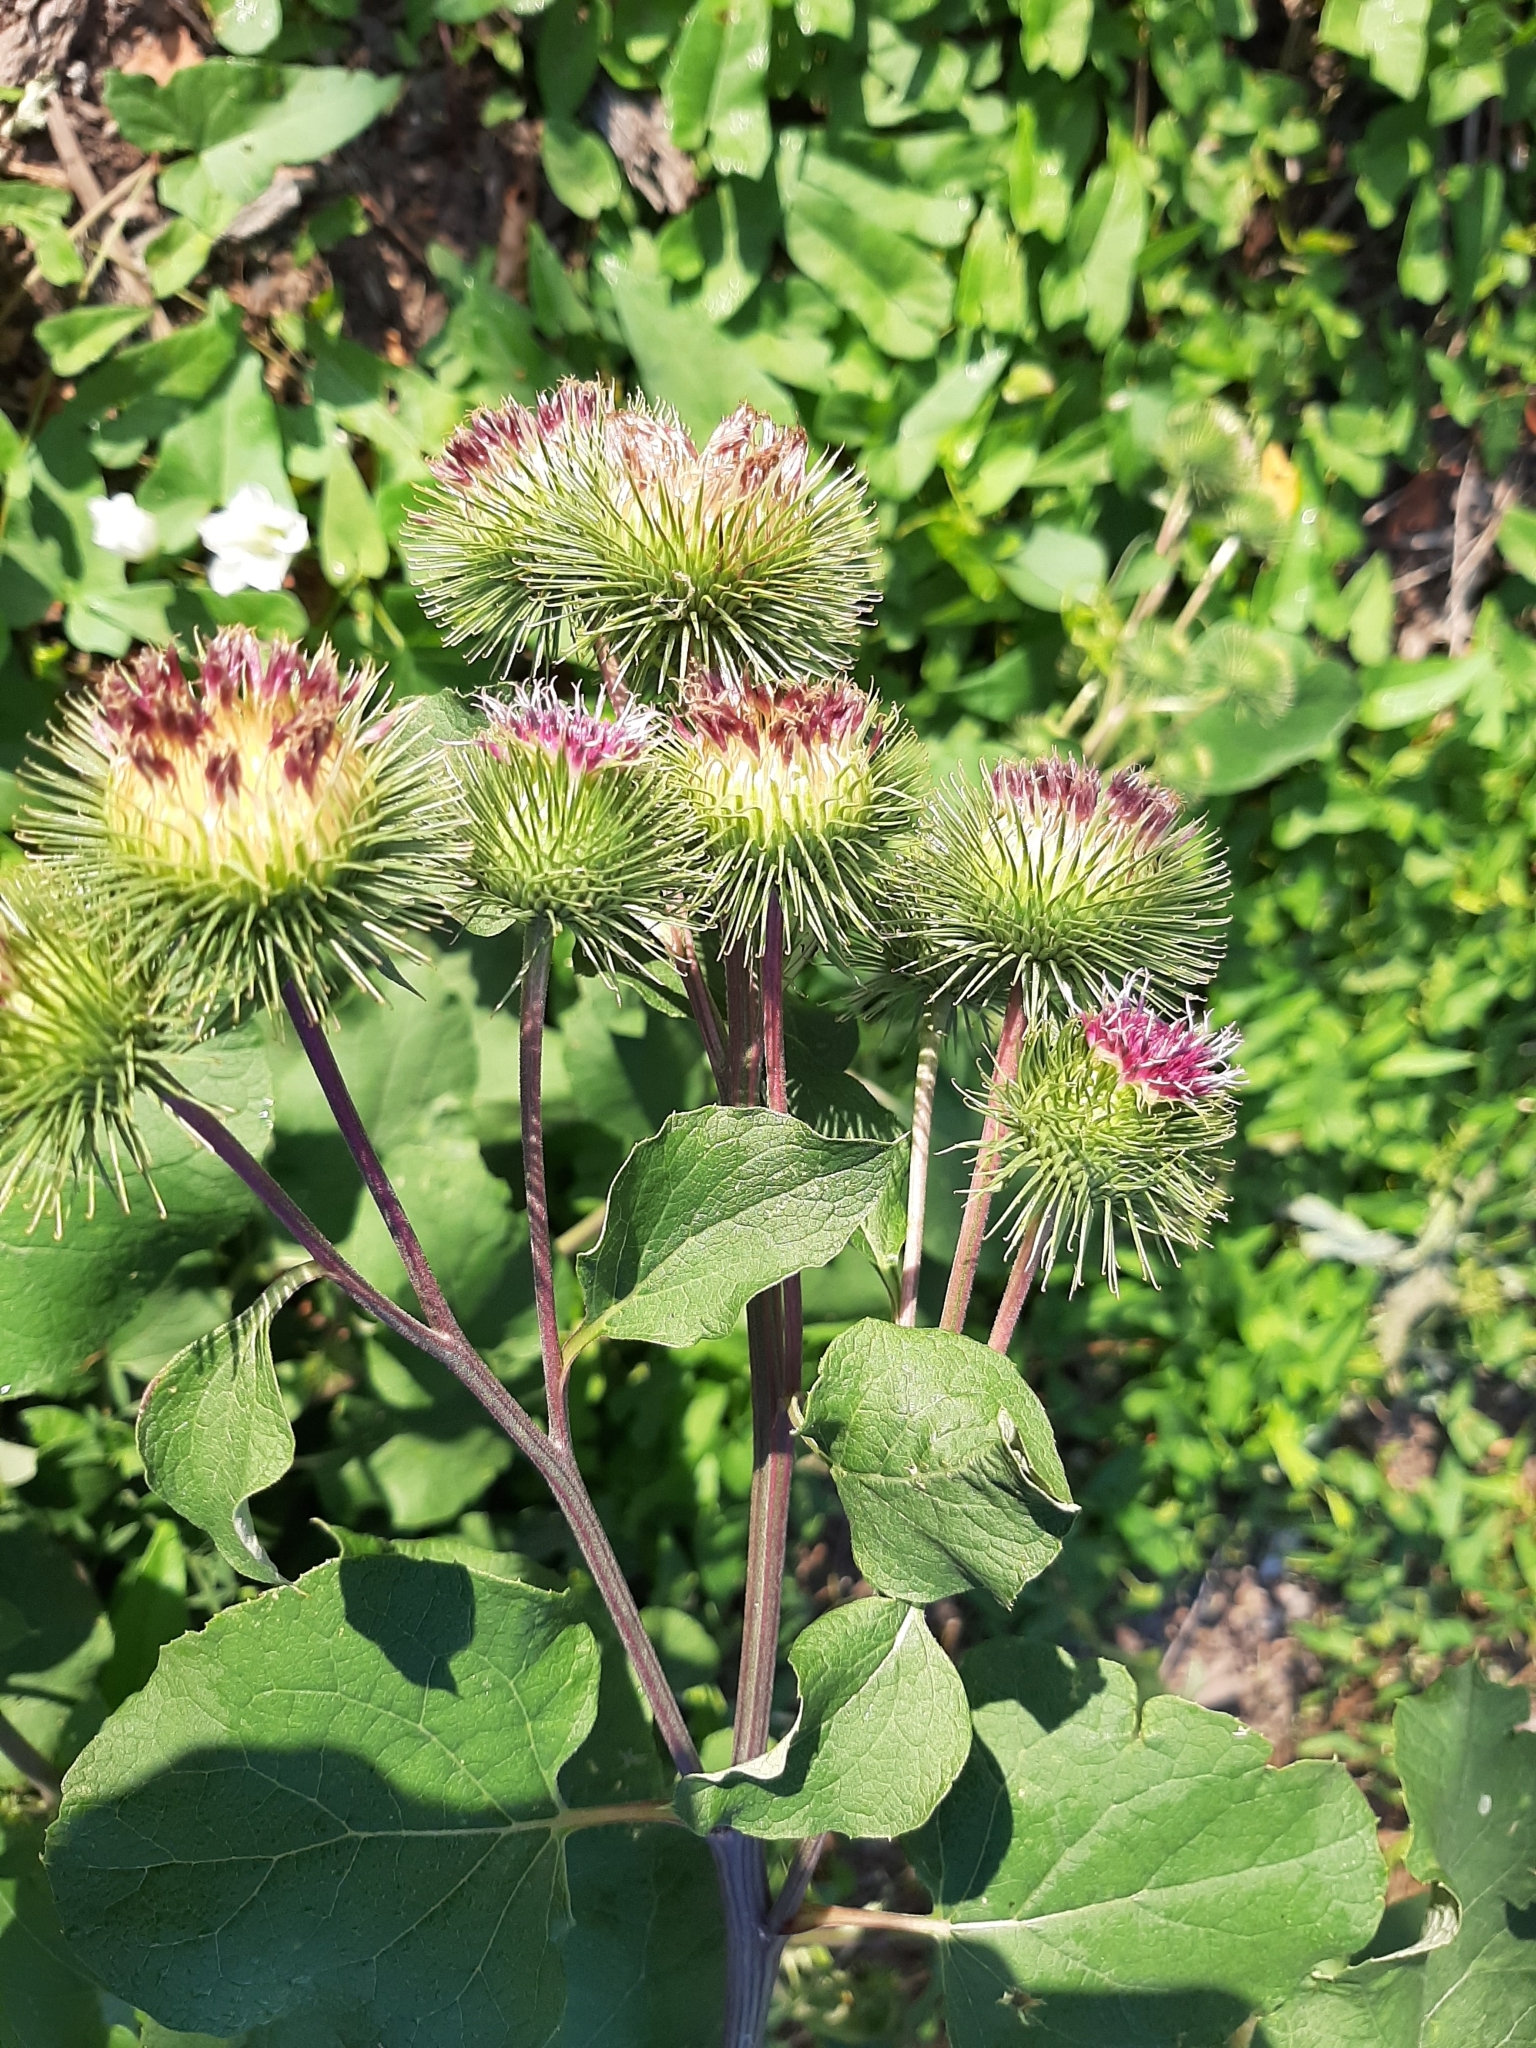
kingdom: Plantae
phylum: Tracheophyta
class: Magnoliopsida
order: Asterales
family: Asteraceae
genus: Arctium
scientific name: Arctium lappa
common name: Greater burdock
